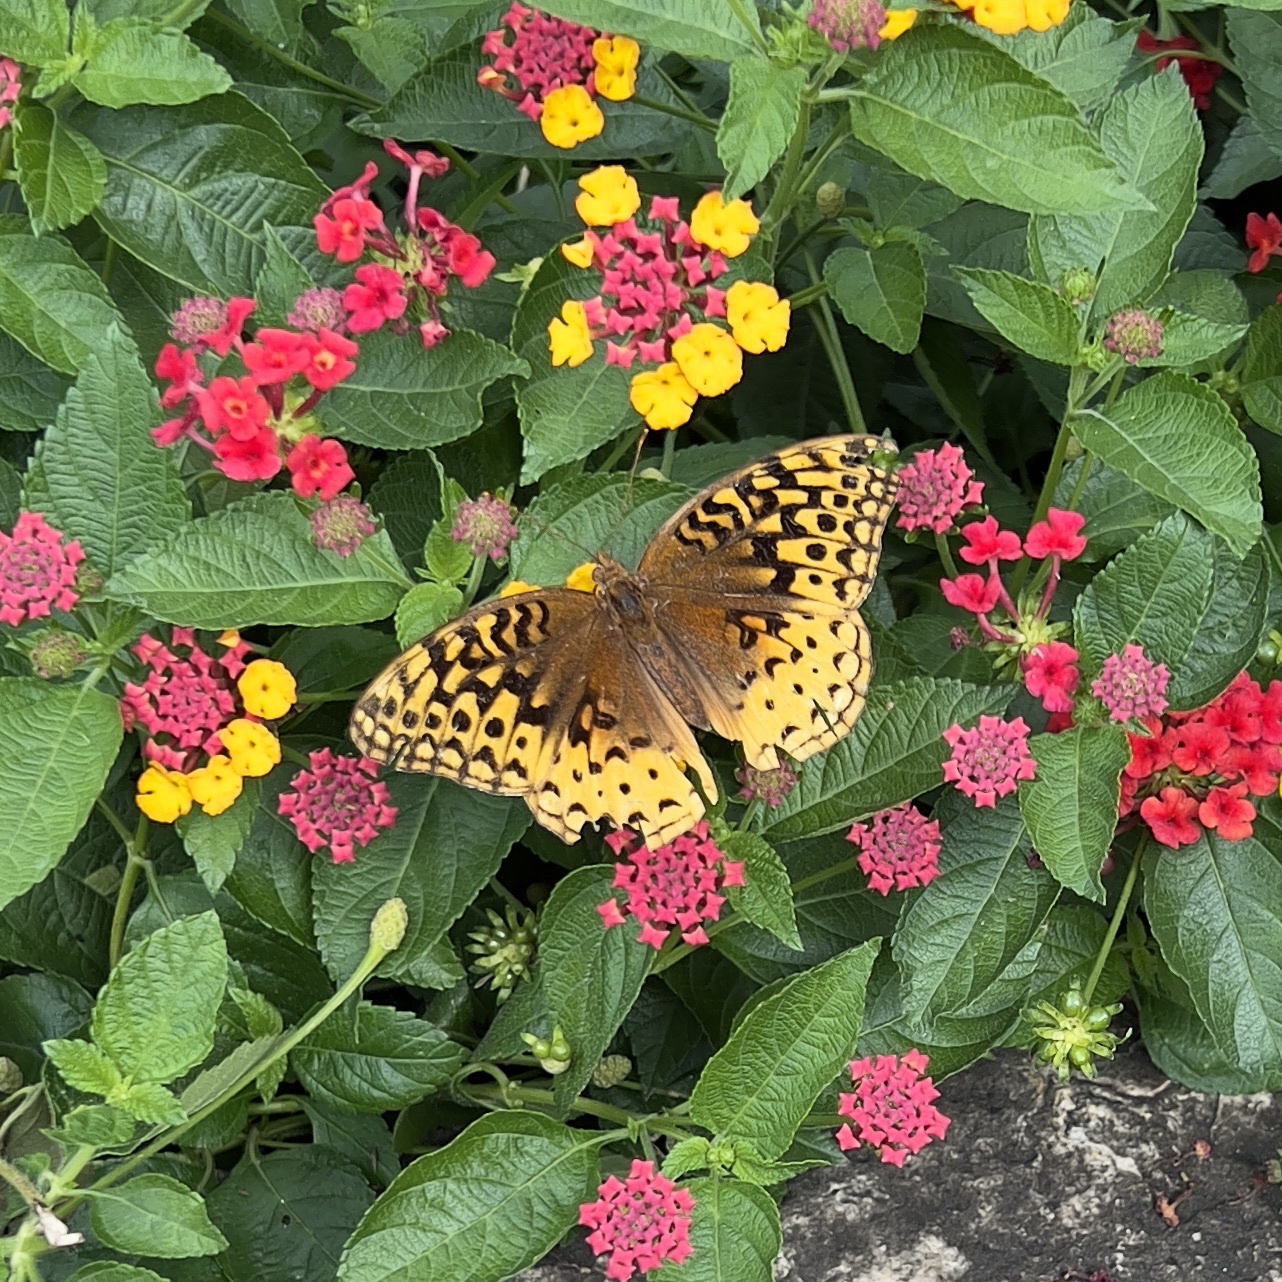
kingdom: Animalia
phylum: Arthropoda
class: Insecta
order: Lepidoptera
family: Nymphalidae
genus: Speyeria
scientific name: Speyeria cybele
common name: Great spangled fritillary
